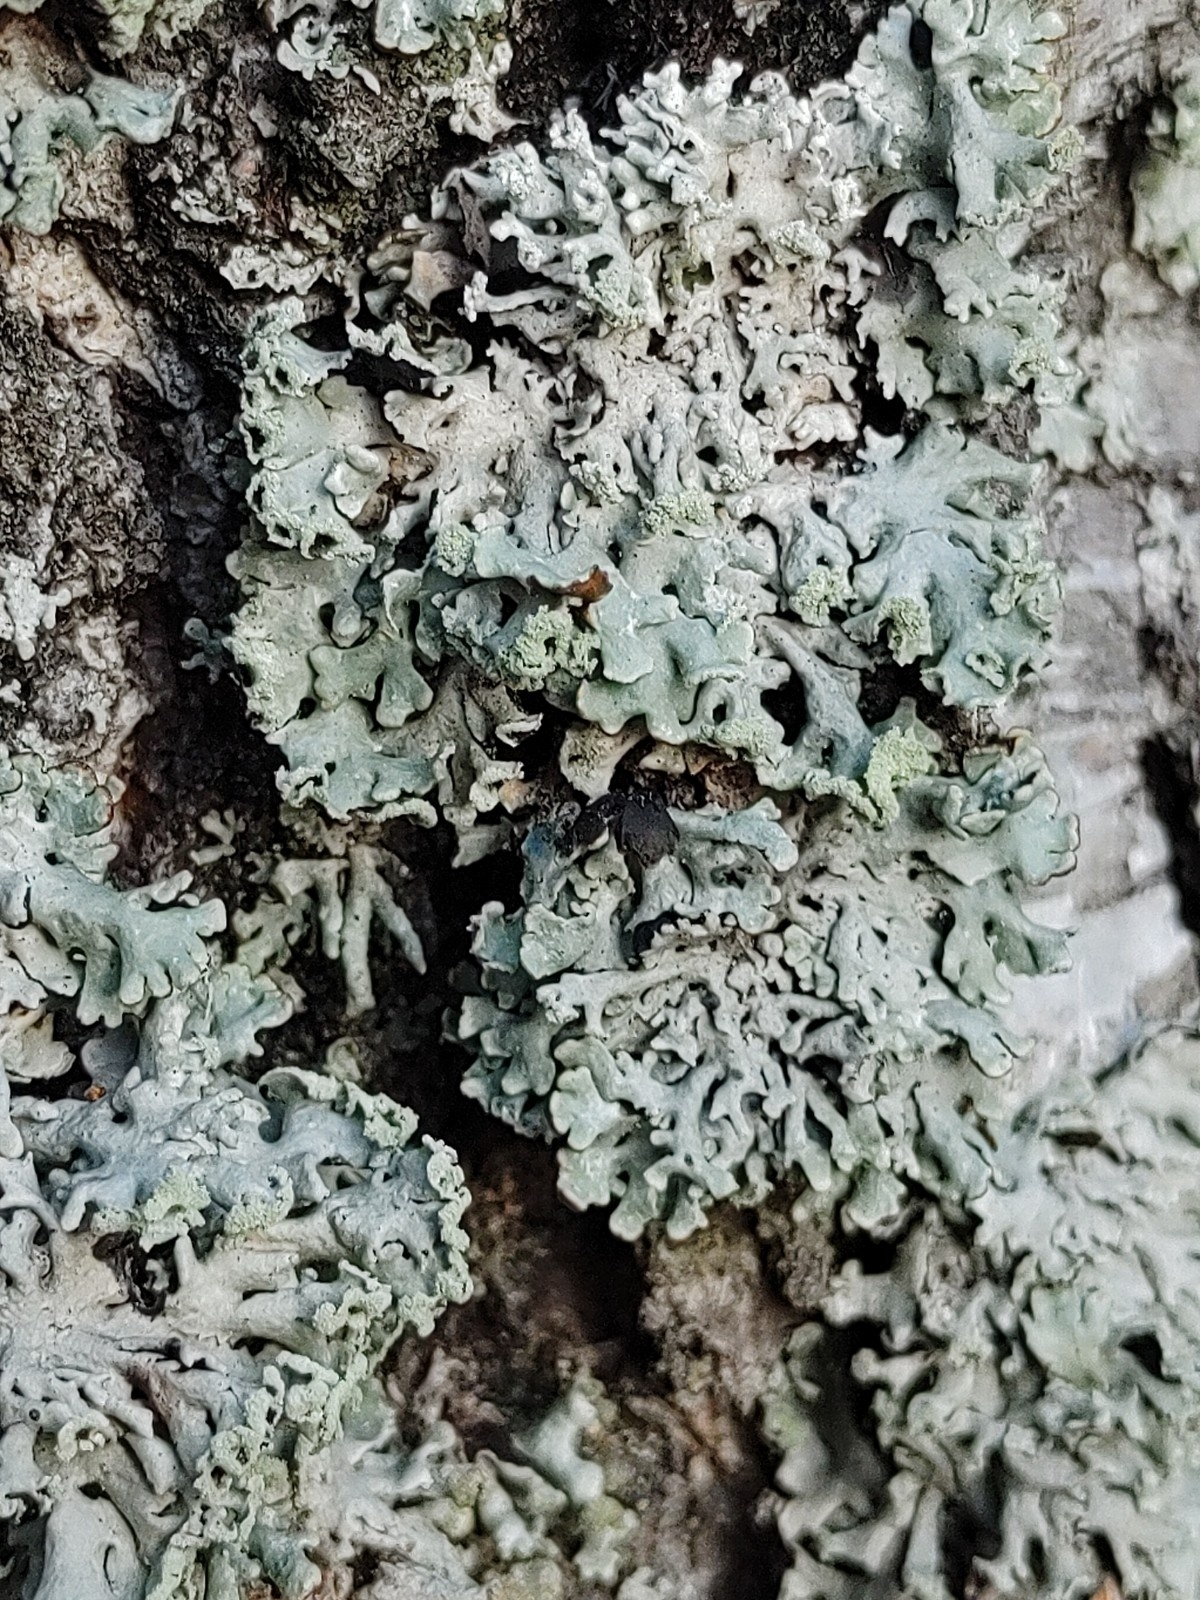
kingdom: Fungi
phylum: Ascomycota
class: Lecanoromycetes
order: Lecanorales
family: Parmeliaceae
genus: Hypogymnia
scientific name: Hypogymnia physodes
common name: Dark crottle
